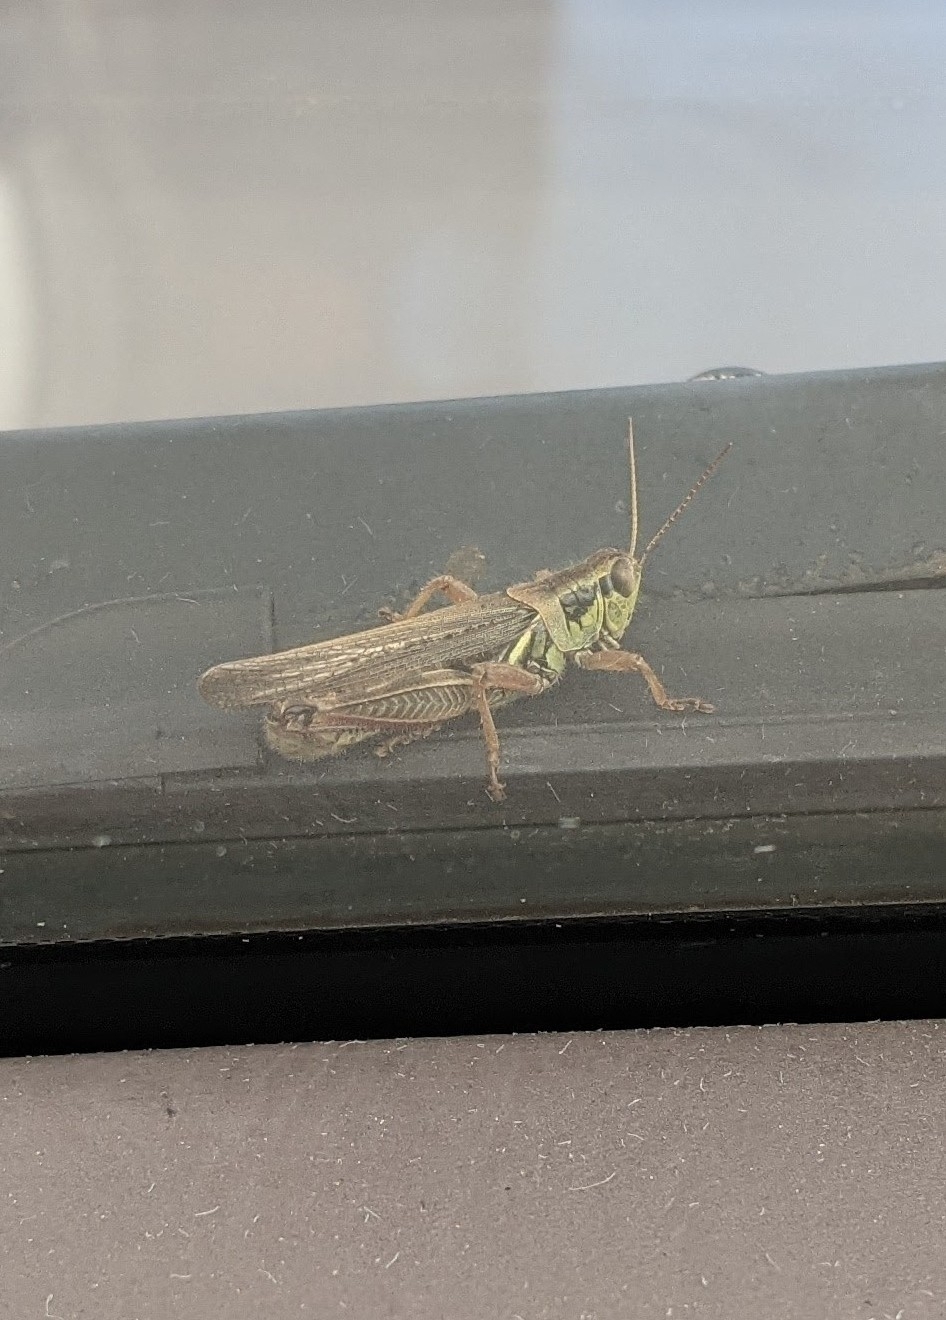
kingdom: Animalia
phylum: Arthropoda
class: Insecta
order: Orthoptera
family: Acrididae
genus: Melanoplus
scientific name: Melanoplus femurrubrum
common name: Red-legged grasshopper
